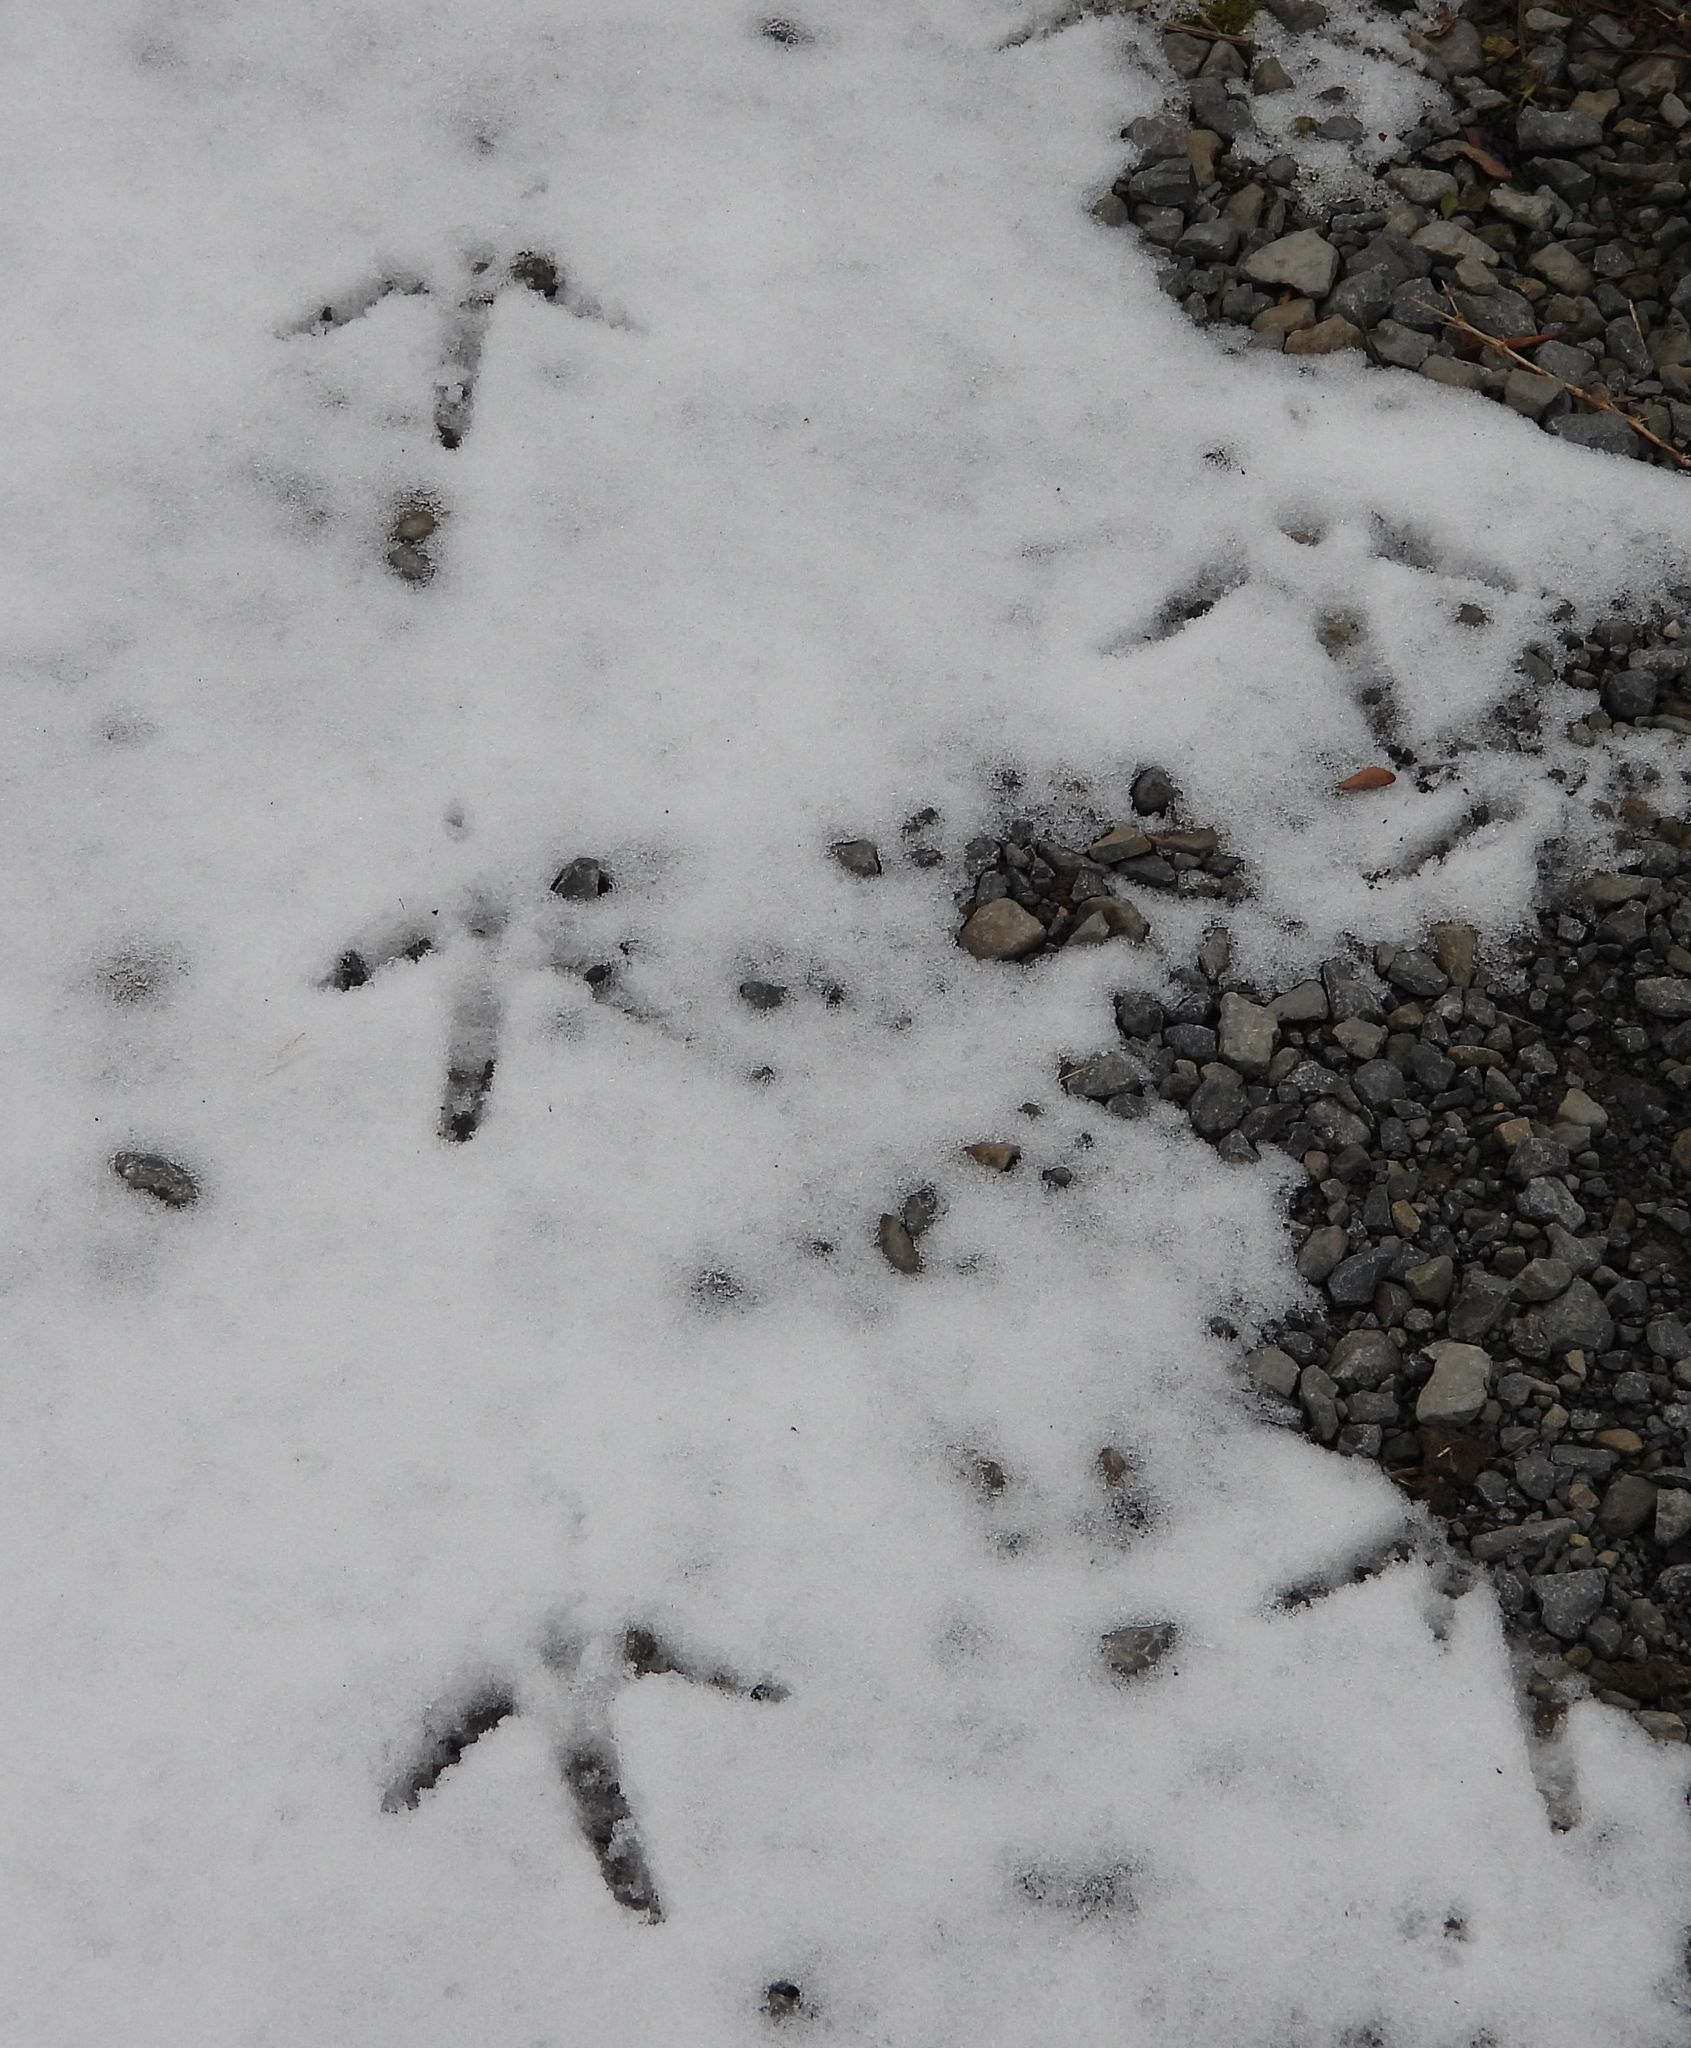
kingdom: Animalia
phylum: Chordata
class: Aves
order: Galliformes
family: Phasianidae
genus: Meleagris
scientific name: Meleagris gallopavo
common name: Wild turkey
